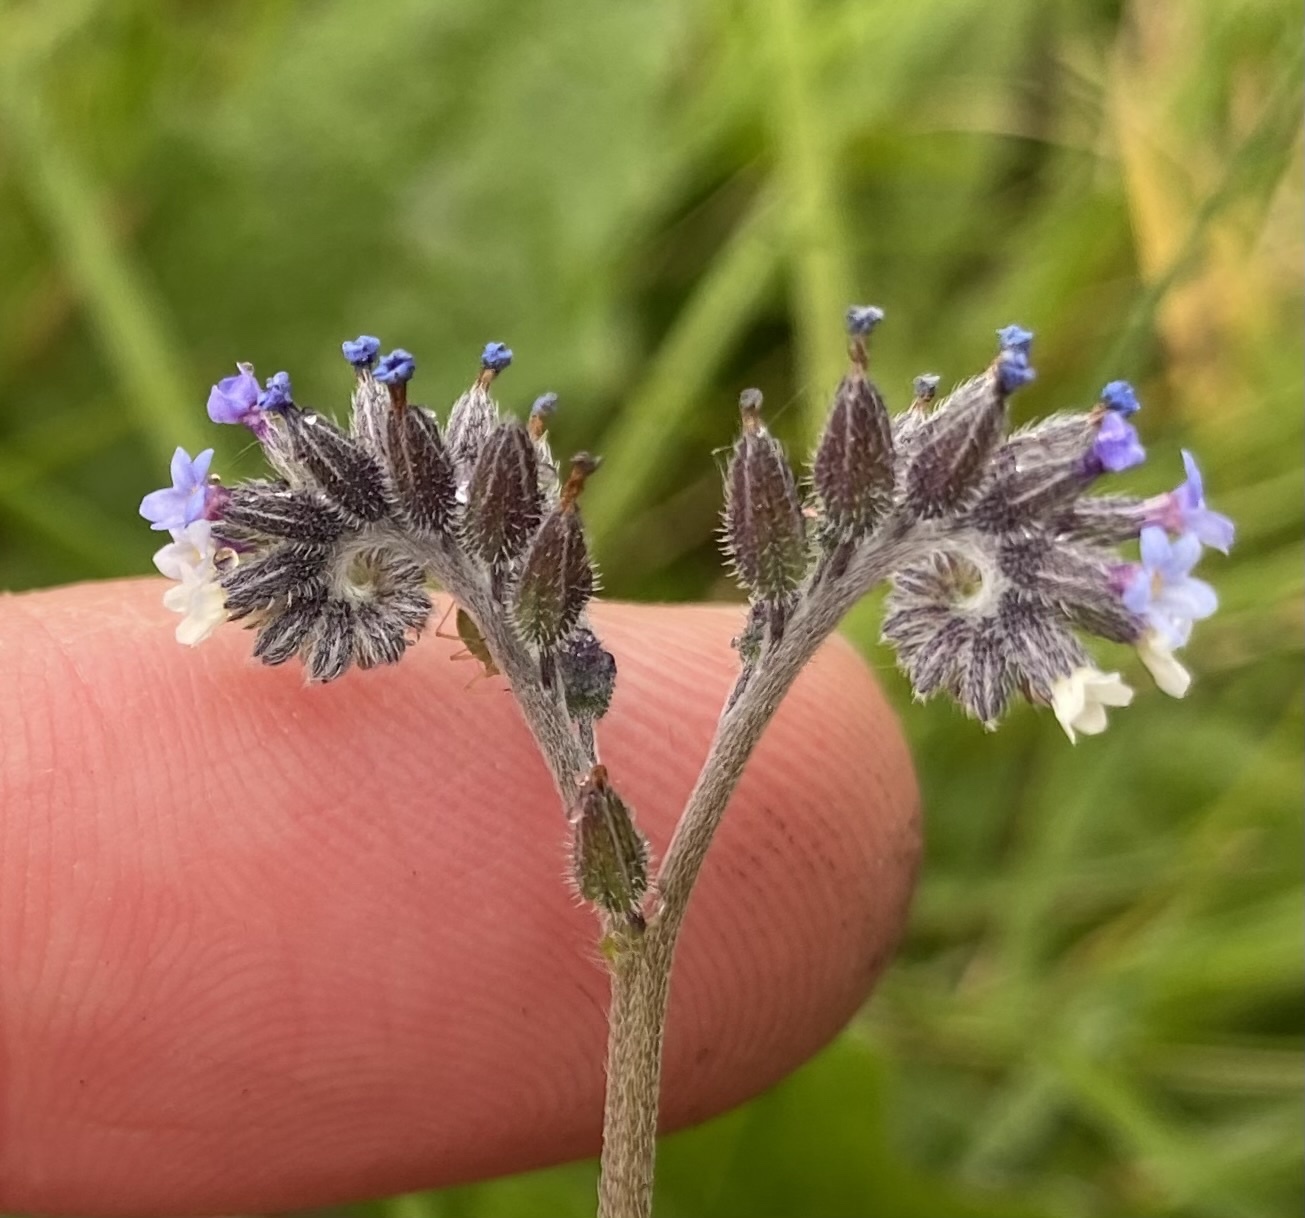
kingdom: Plantae
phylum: Tracheophyta
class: Magnoliopsida
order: Boraginales
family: Boraginaceae
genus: Myosotis
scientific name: Myosotis discolor
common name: Changing forget-me-not
